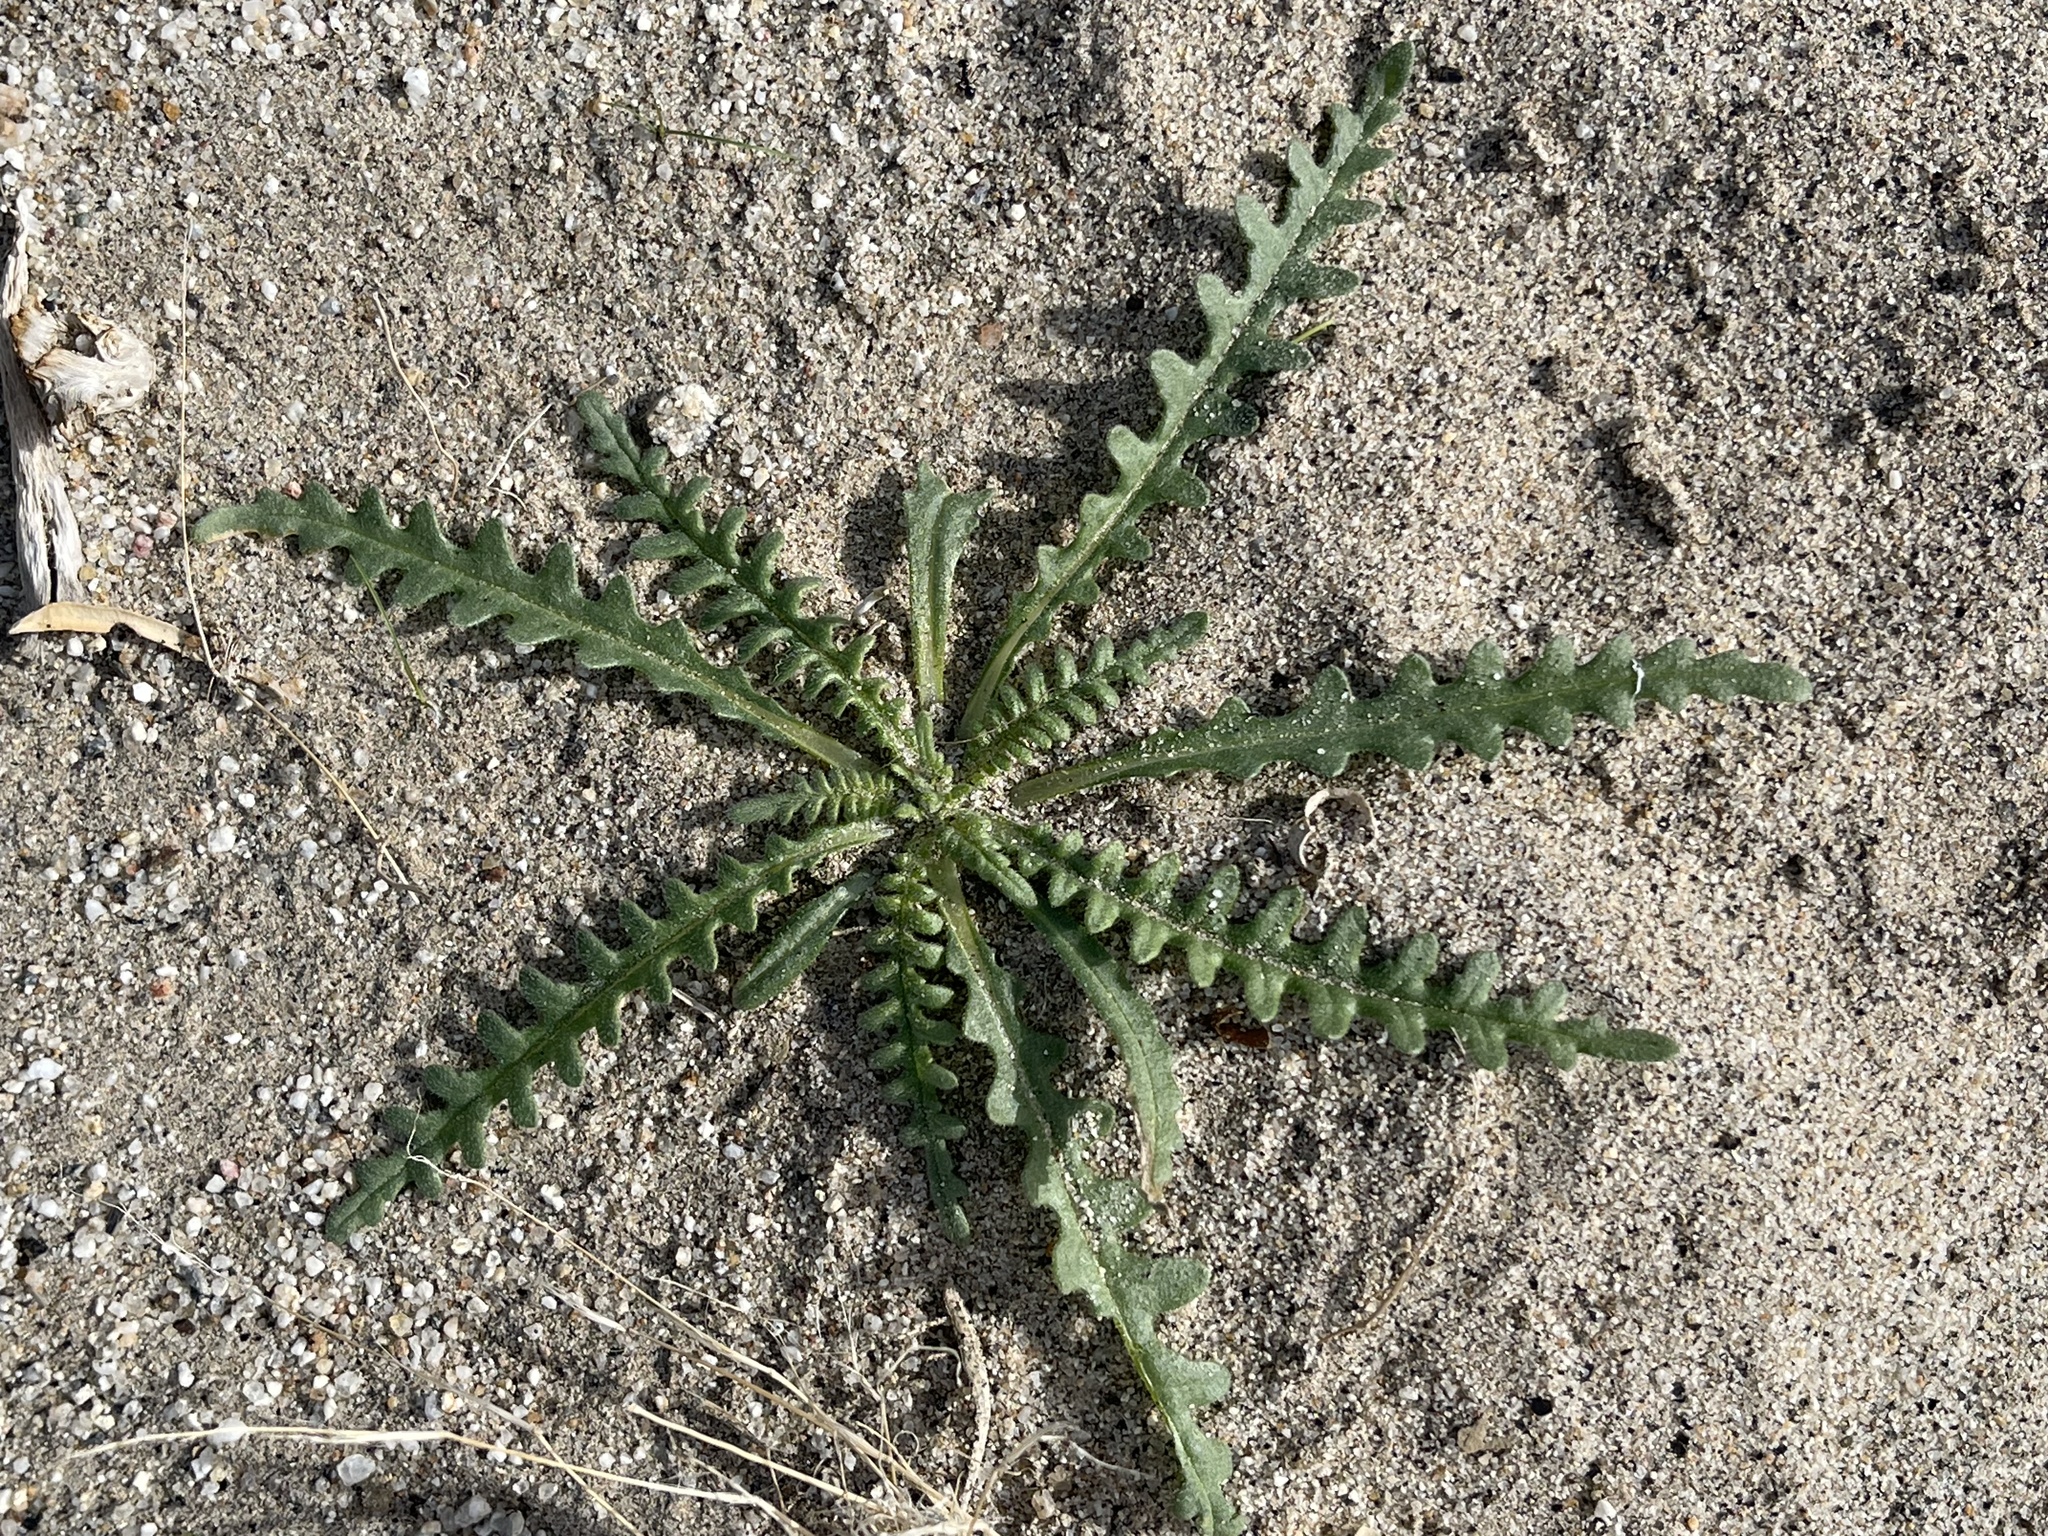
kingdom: Plantae
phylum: Tracheophyta
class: Magnoliopsida
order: Boraginales
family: Hydrophyllaceae
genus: Emmenanthe
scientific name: Emmenanthe penduliflora
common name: Whispering-bells
